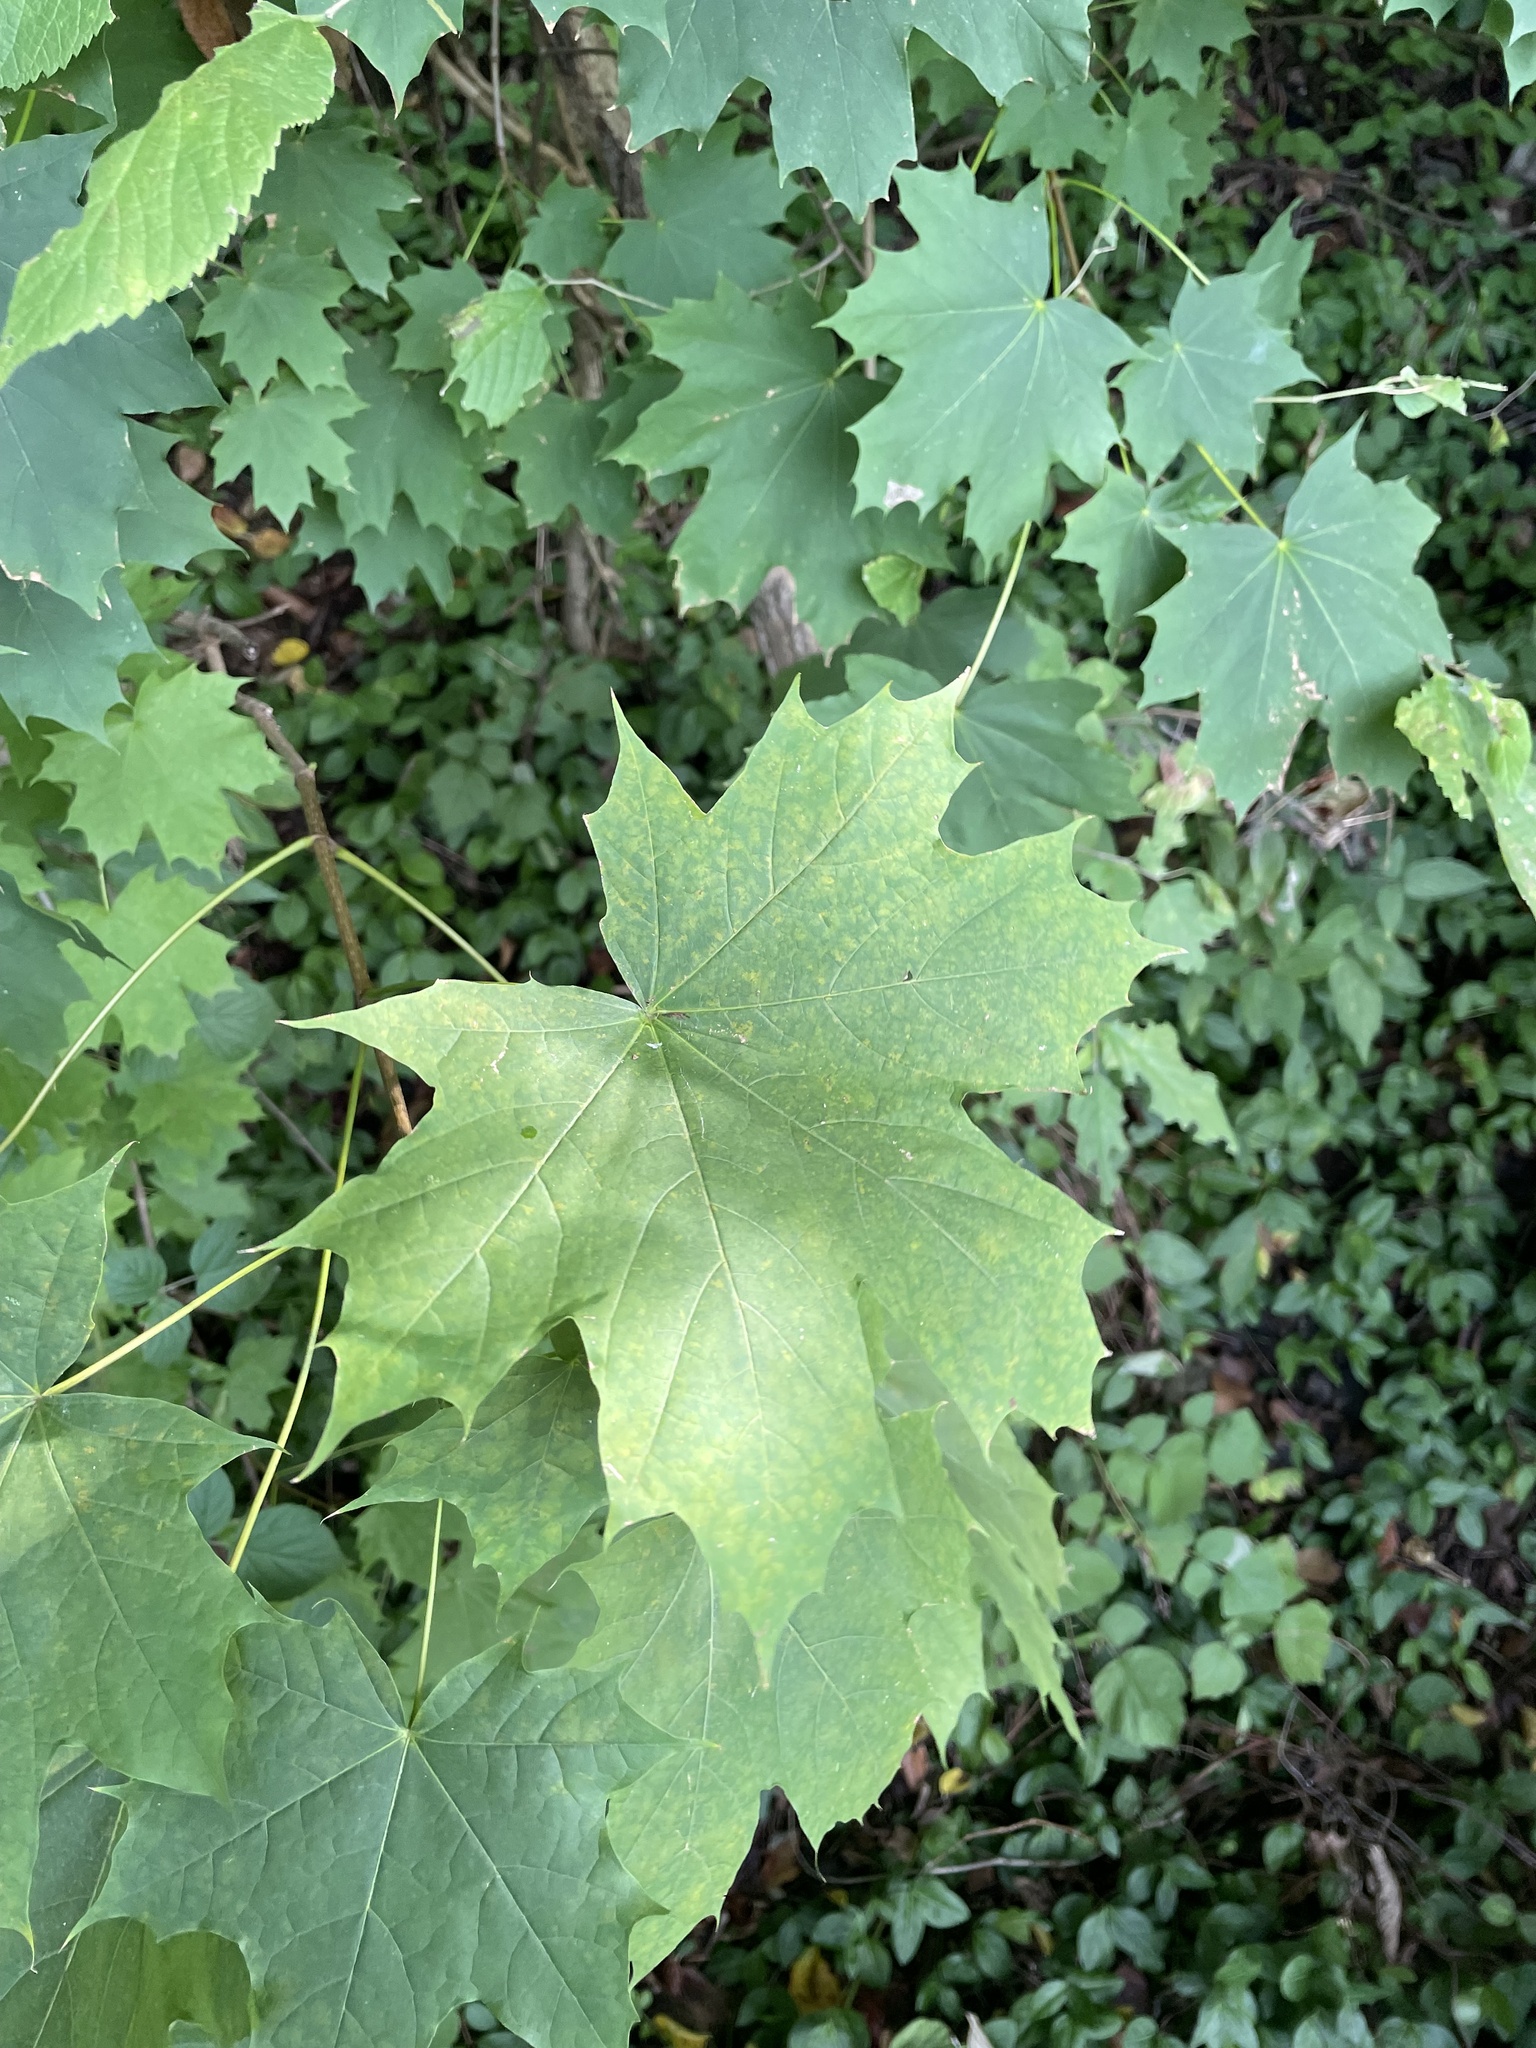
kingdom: Plantae
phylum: Tracheophyta
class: Magnoliopsida
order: Sapindales
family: Sapindaceae
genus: Acer
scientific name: Acer platanoides
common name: Norway maple
